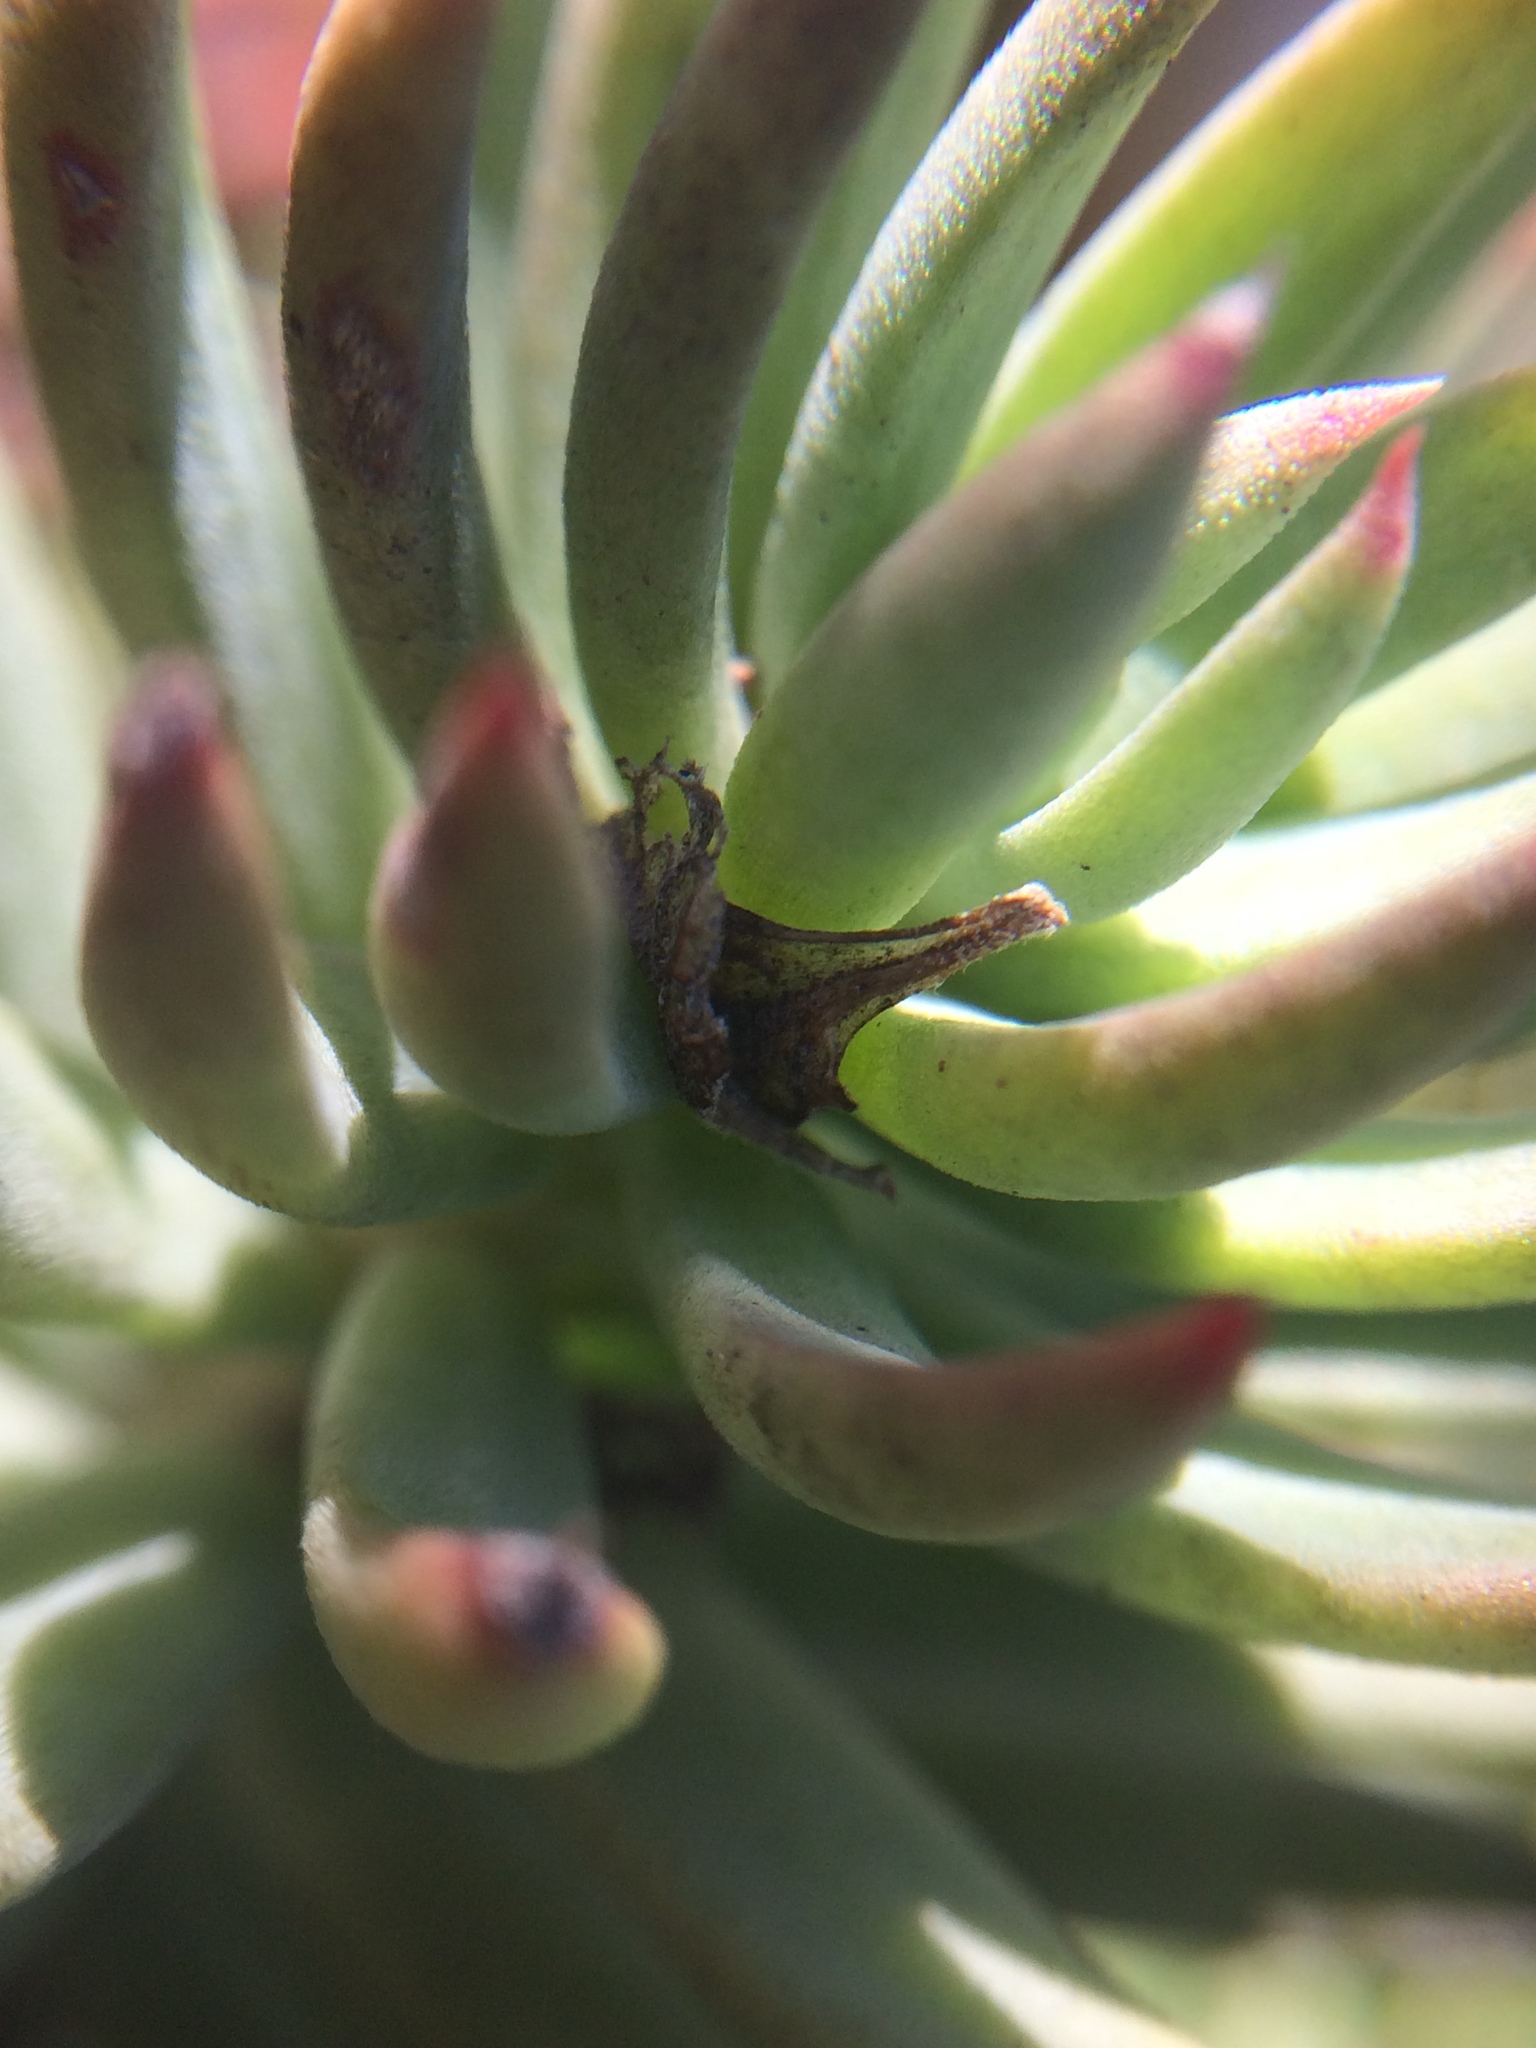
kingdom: Plantae
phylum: Tracheophyta
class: Magnoliopsida
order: Saxifragales
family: Crassulaceae
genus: Petrosedum
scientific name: Petrosedum sediforme
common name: Pale stonecrop
